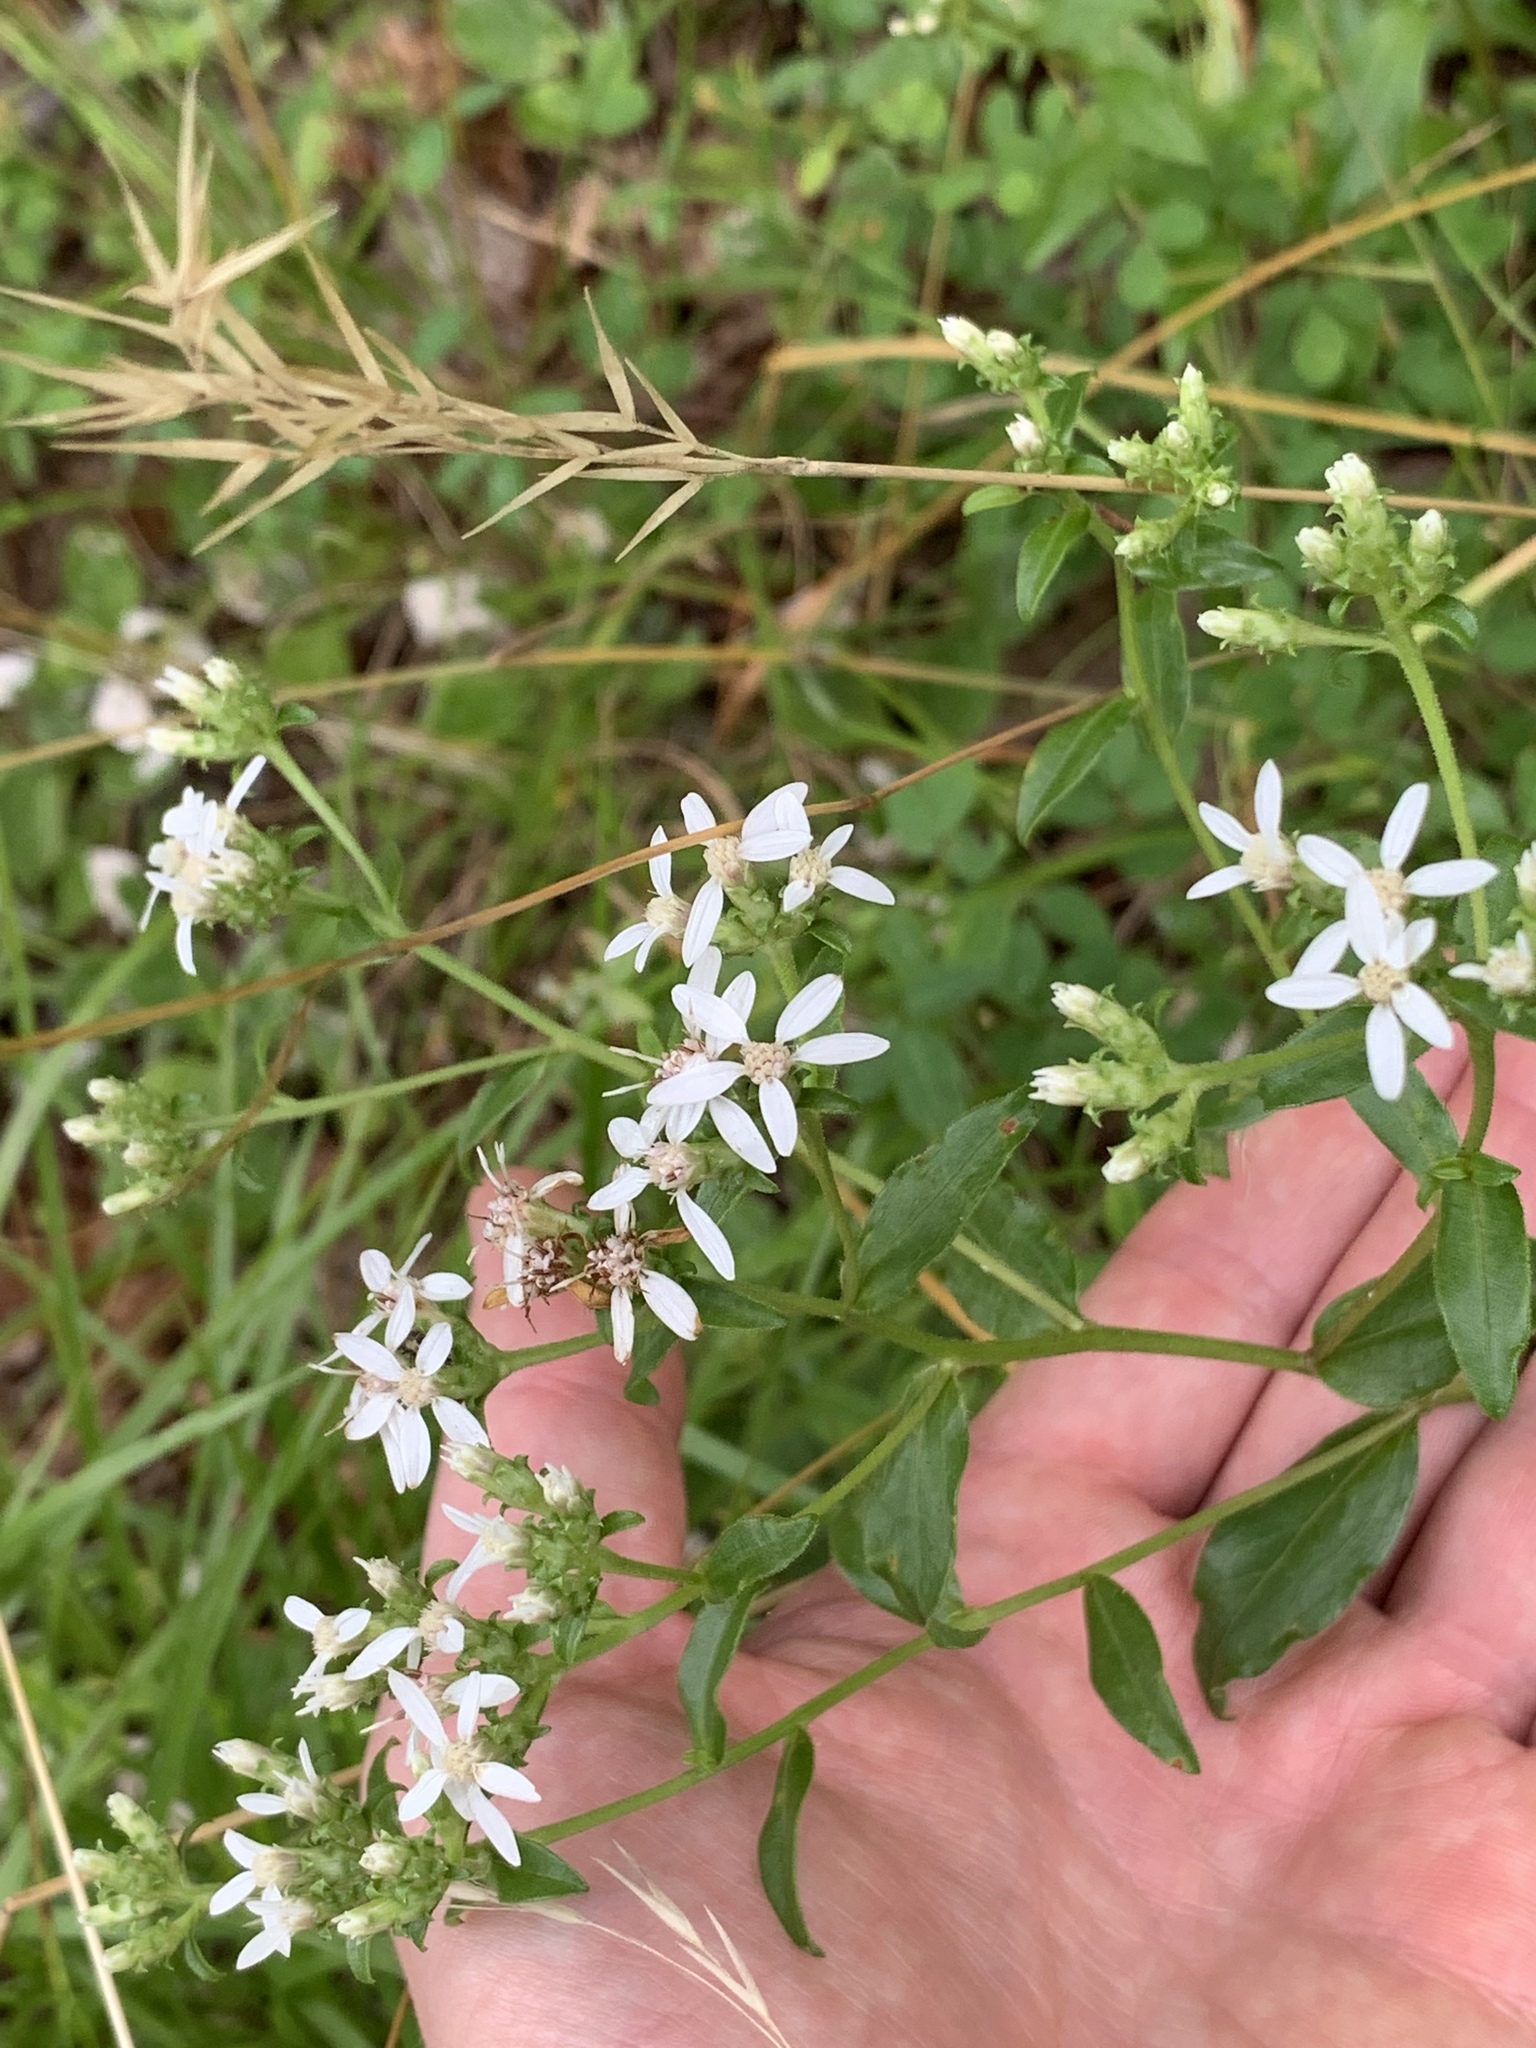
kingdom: Plantae
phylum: Tracheophyta
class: Magnoliopsida
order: Asterales
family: Asteraceae
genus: Sericocarpus
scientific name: Sericocarpus asteroides
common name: Toothed white-top aster
